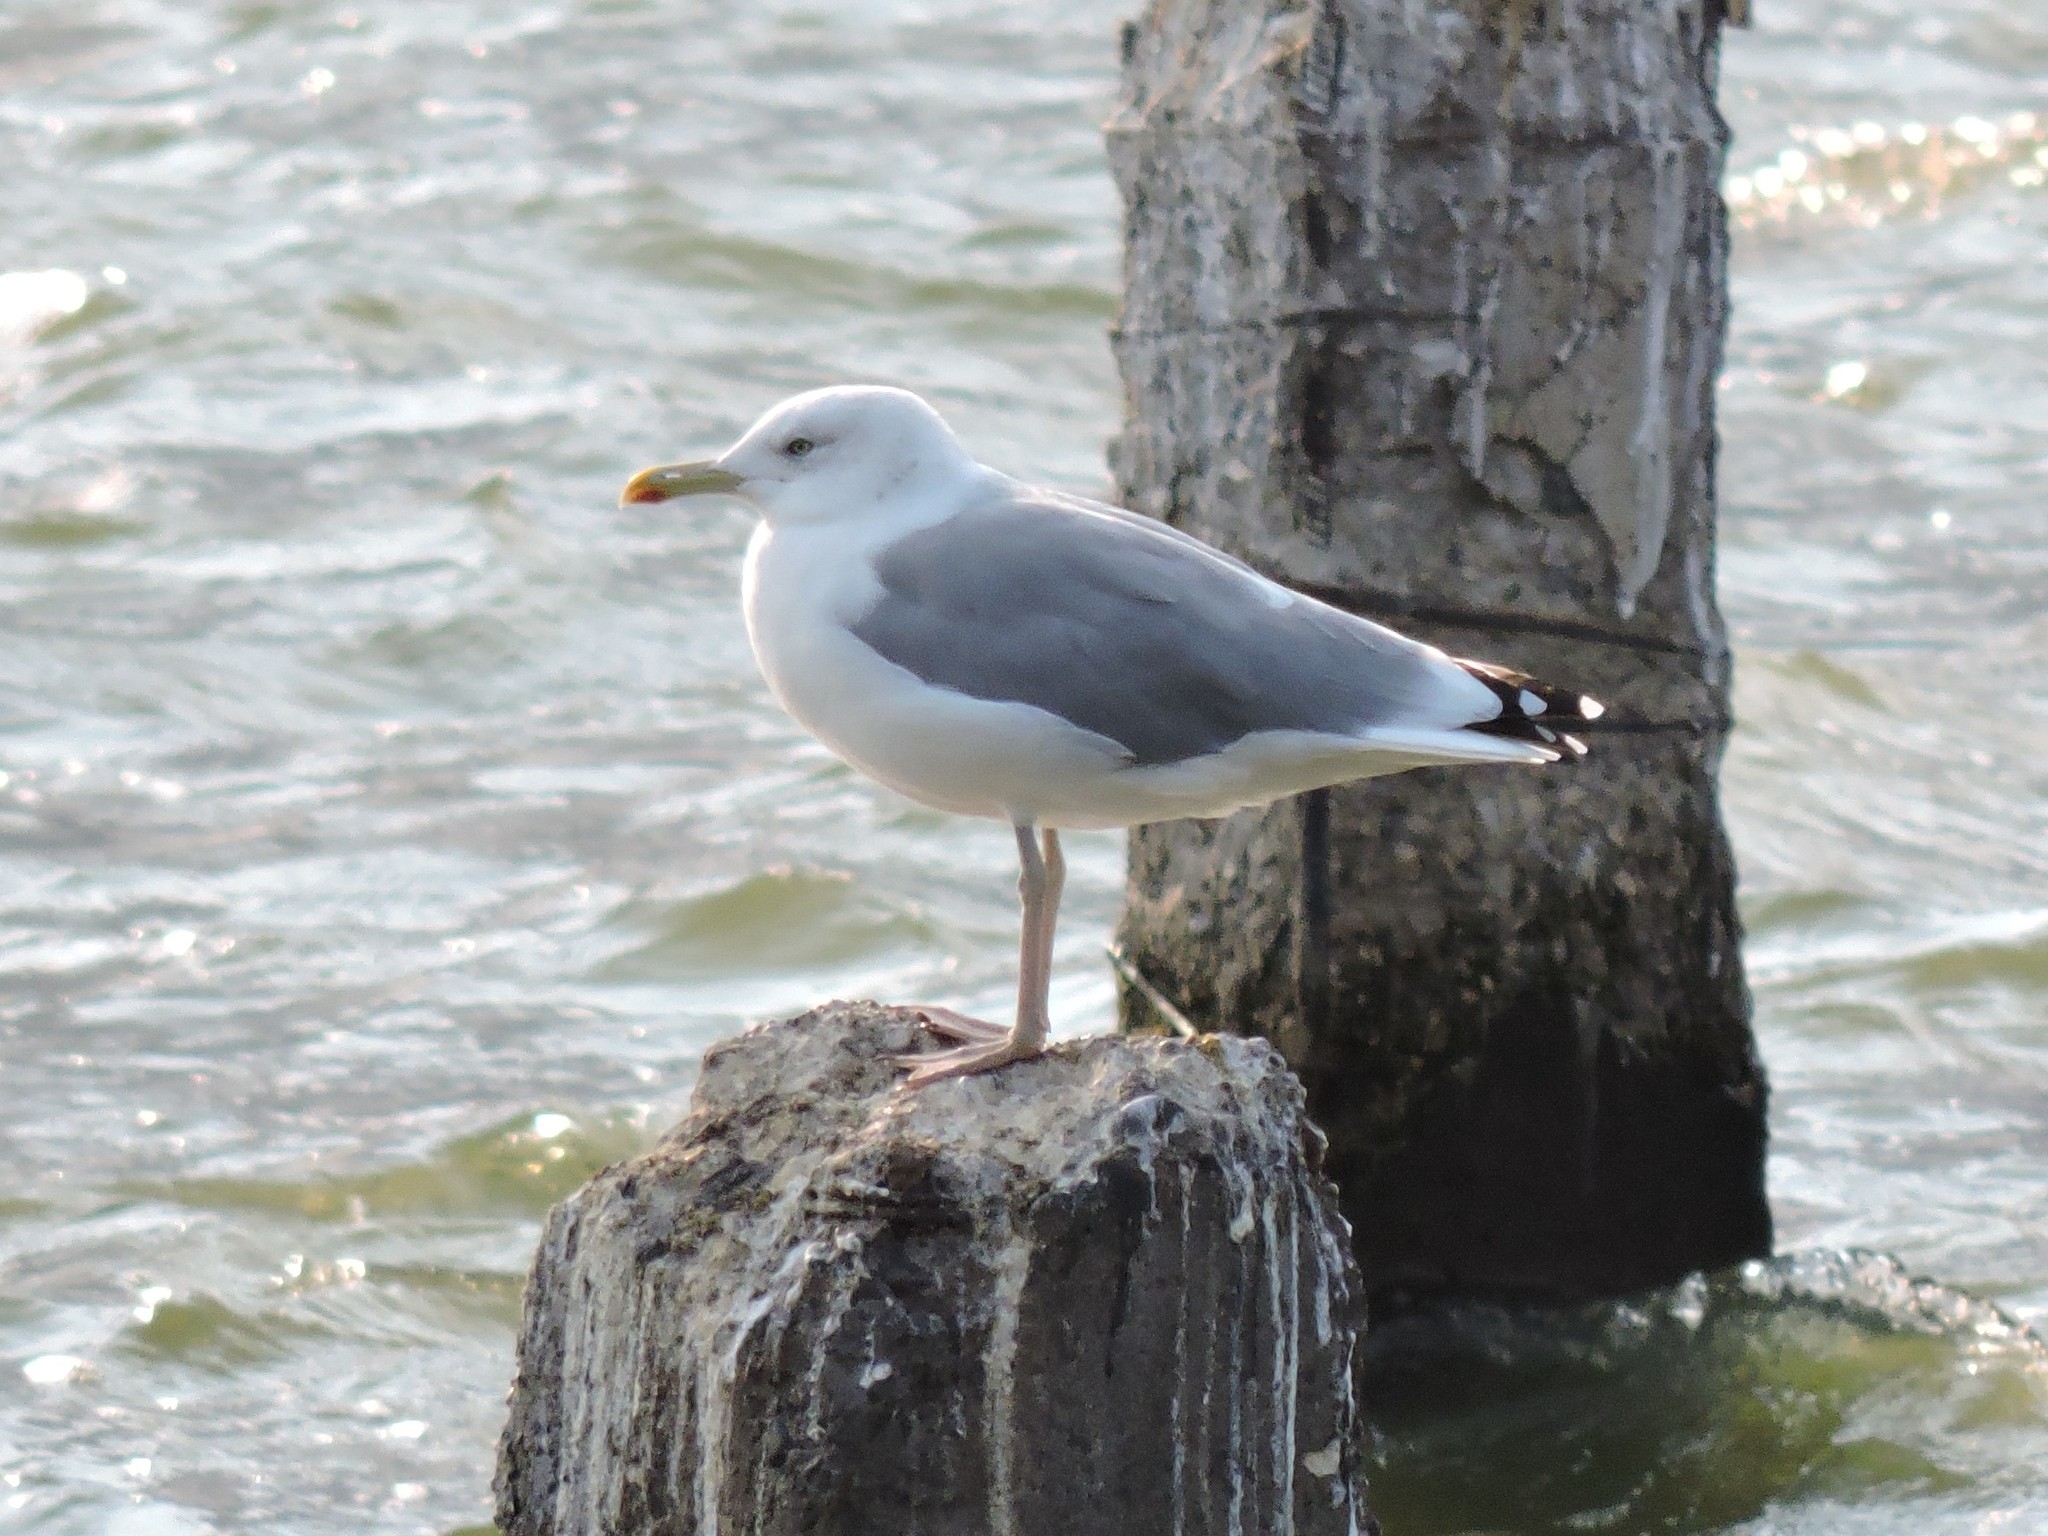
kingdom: Animalia
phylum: Chordata
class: Aves
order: Charadriiformes
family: Laridae
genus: Larus
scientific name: Larus argentatus
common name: Herring gull
